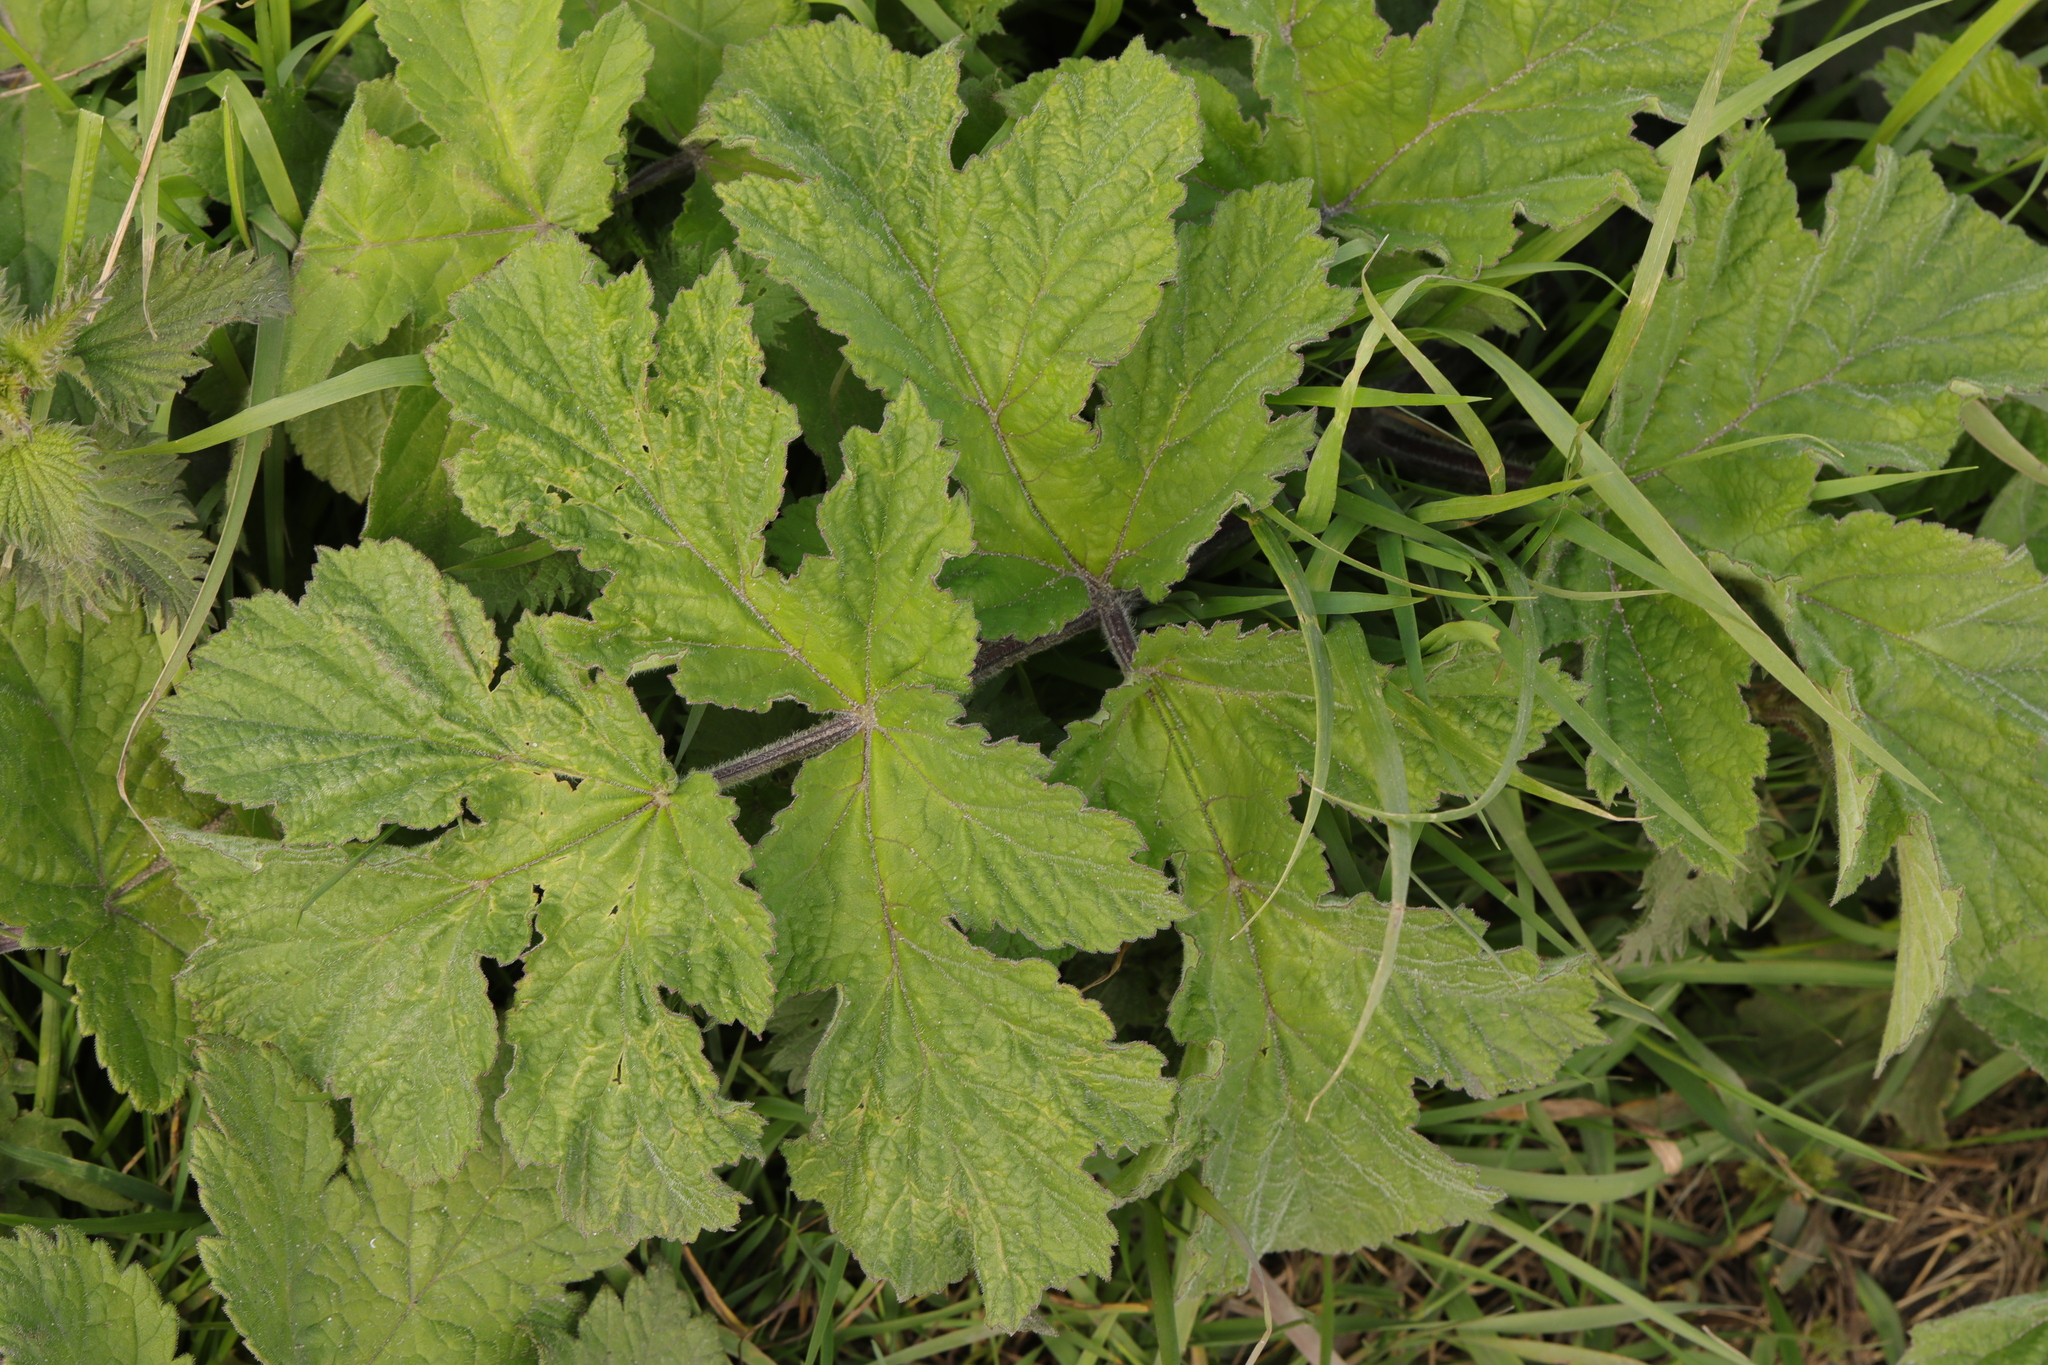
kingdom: Plantae
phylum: Tracheophyta
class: Magnoliopsida
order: Apiales
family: Apiaceae
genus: Heracleum
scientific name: Heracleum sphondylium
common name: Hogweed
